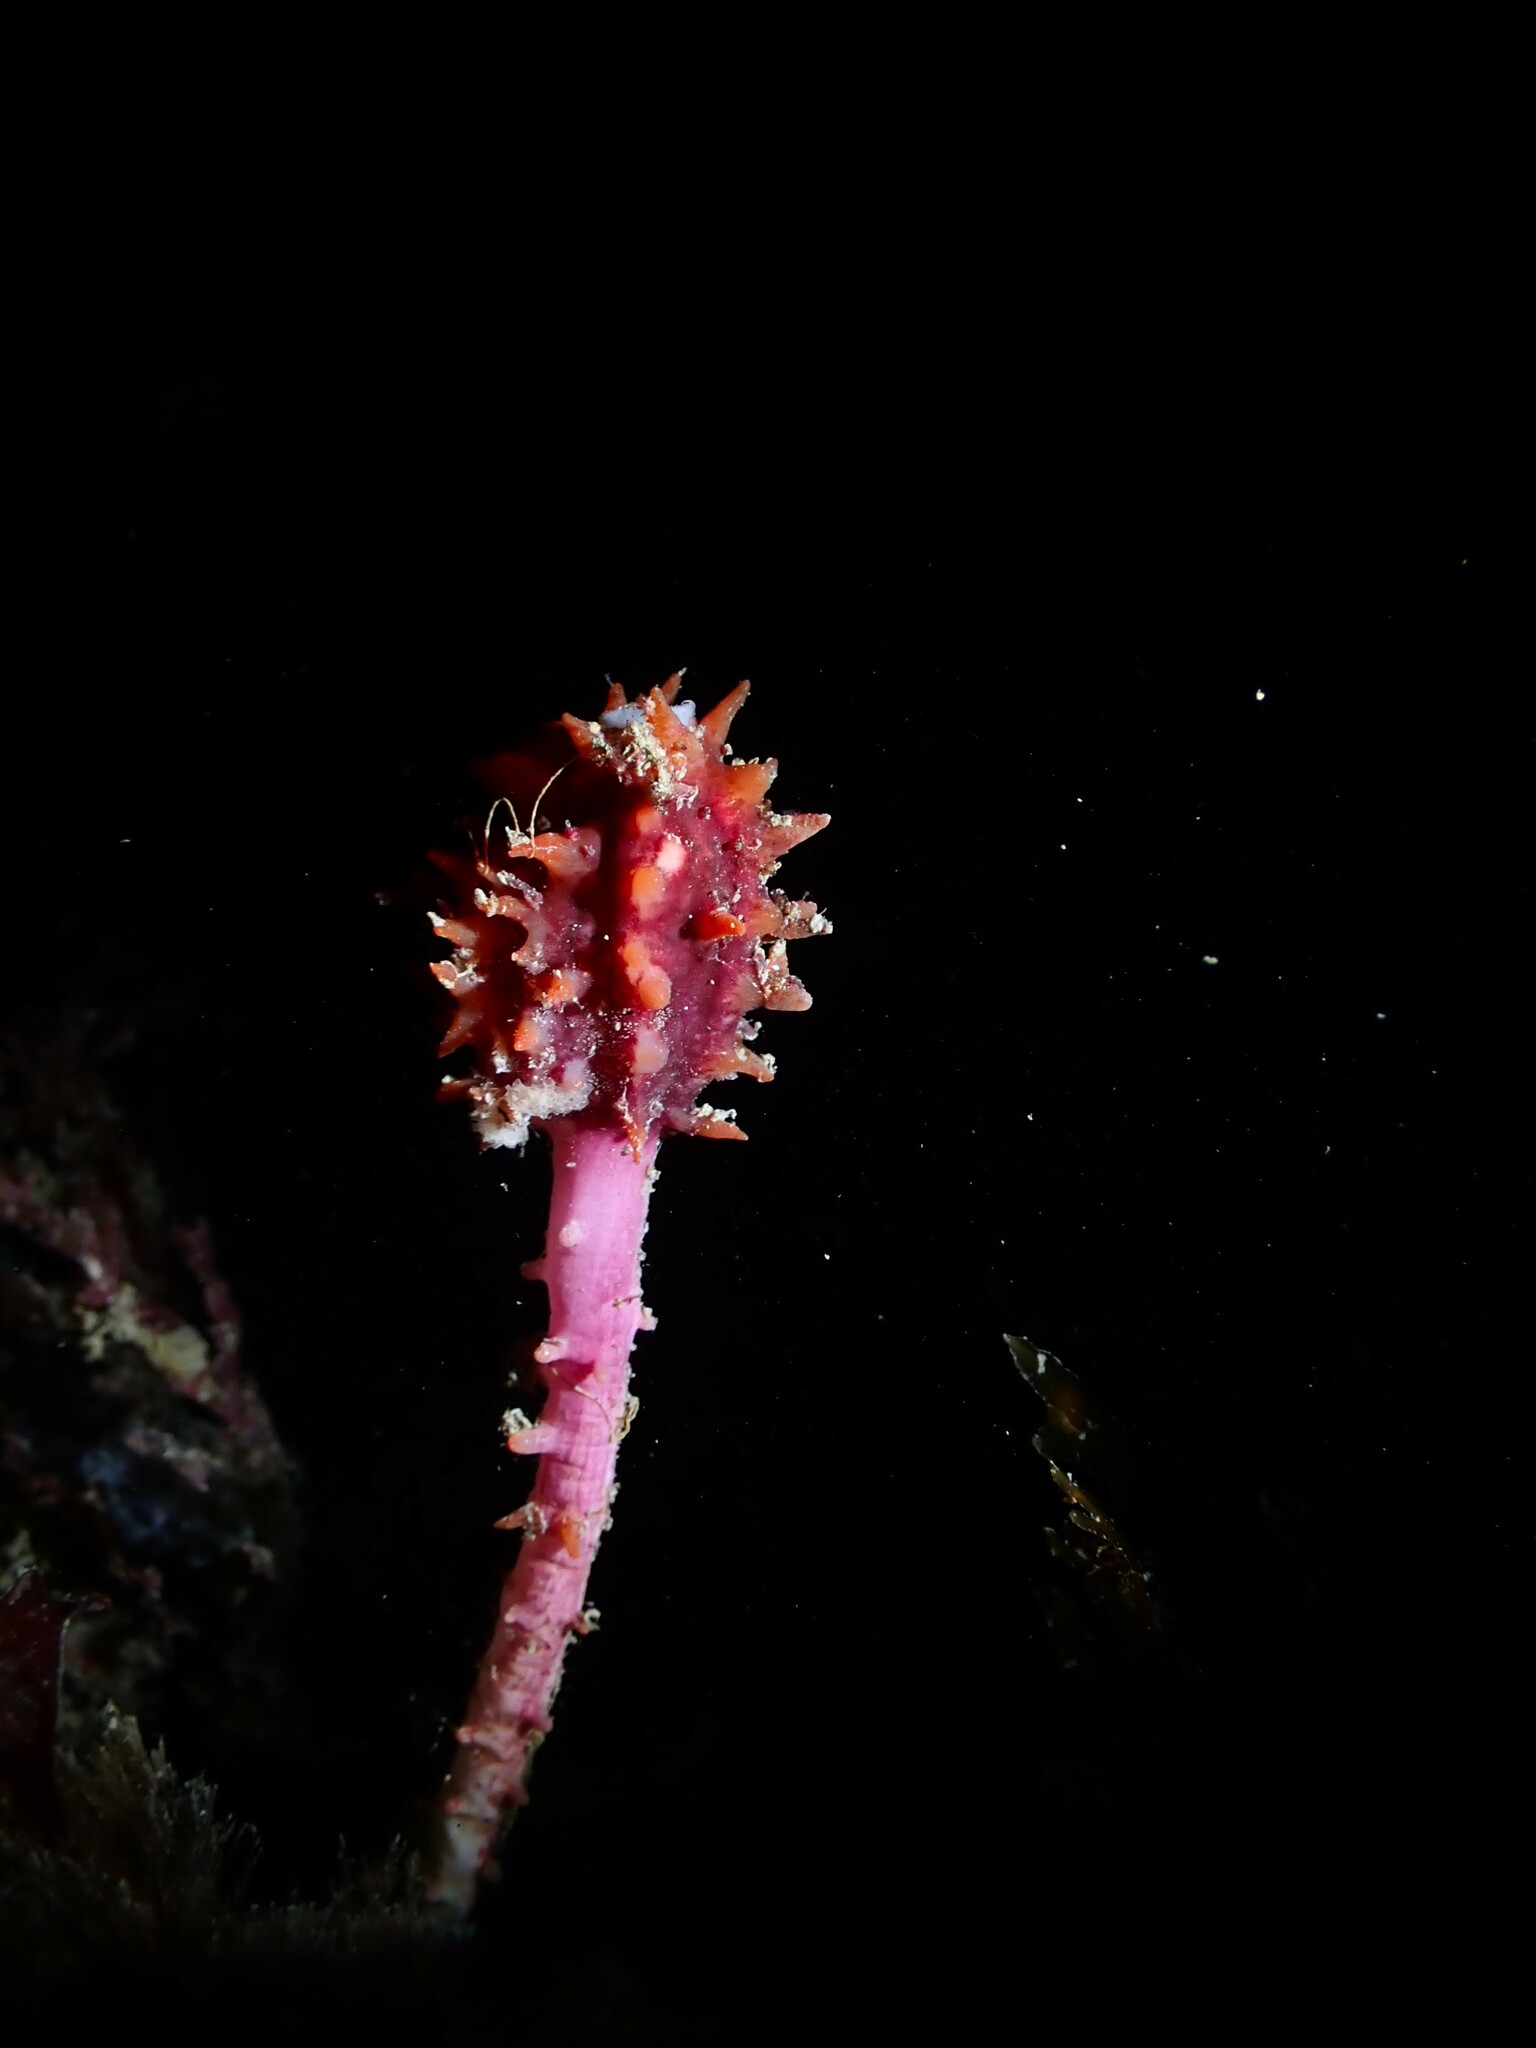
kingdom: Animalia
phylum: Chordata
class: Ascidiacea
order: Stolidobranchia
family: Pyuridae
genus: Pyura
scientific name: Pyura pachydermatina
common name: Sea tulip
